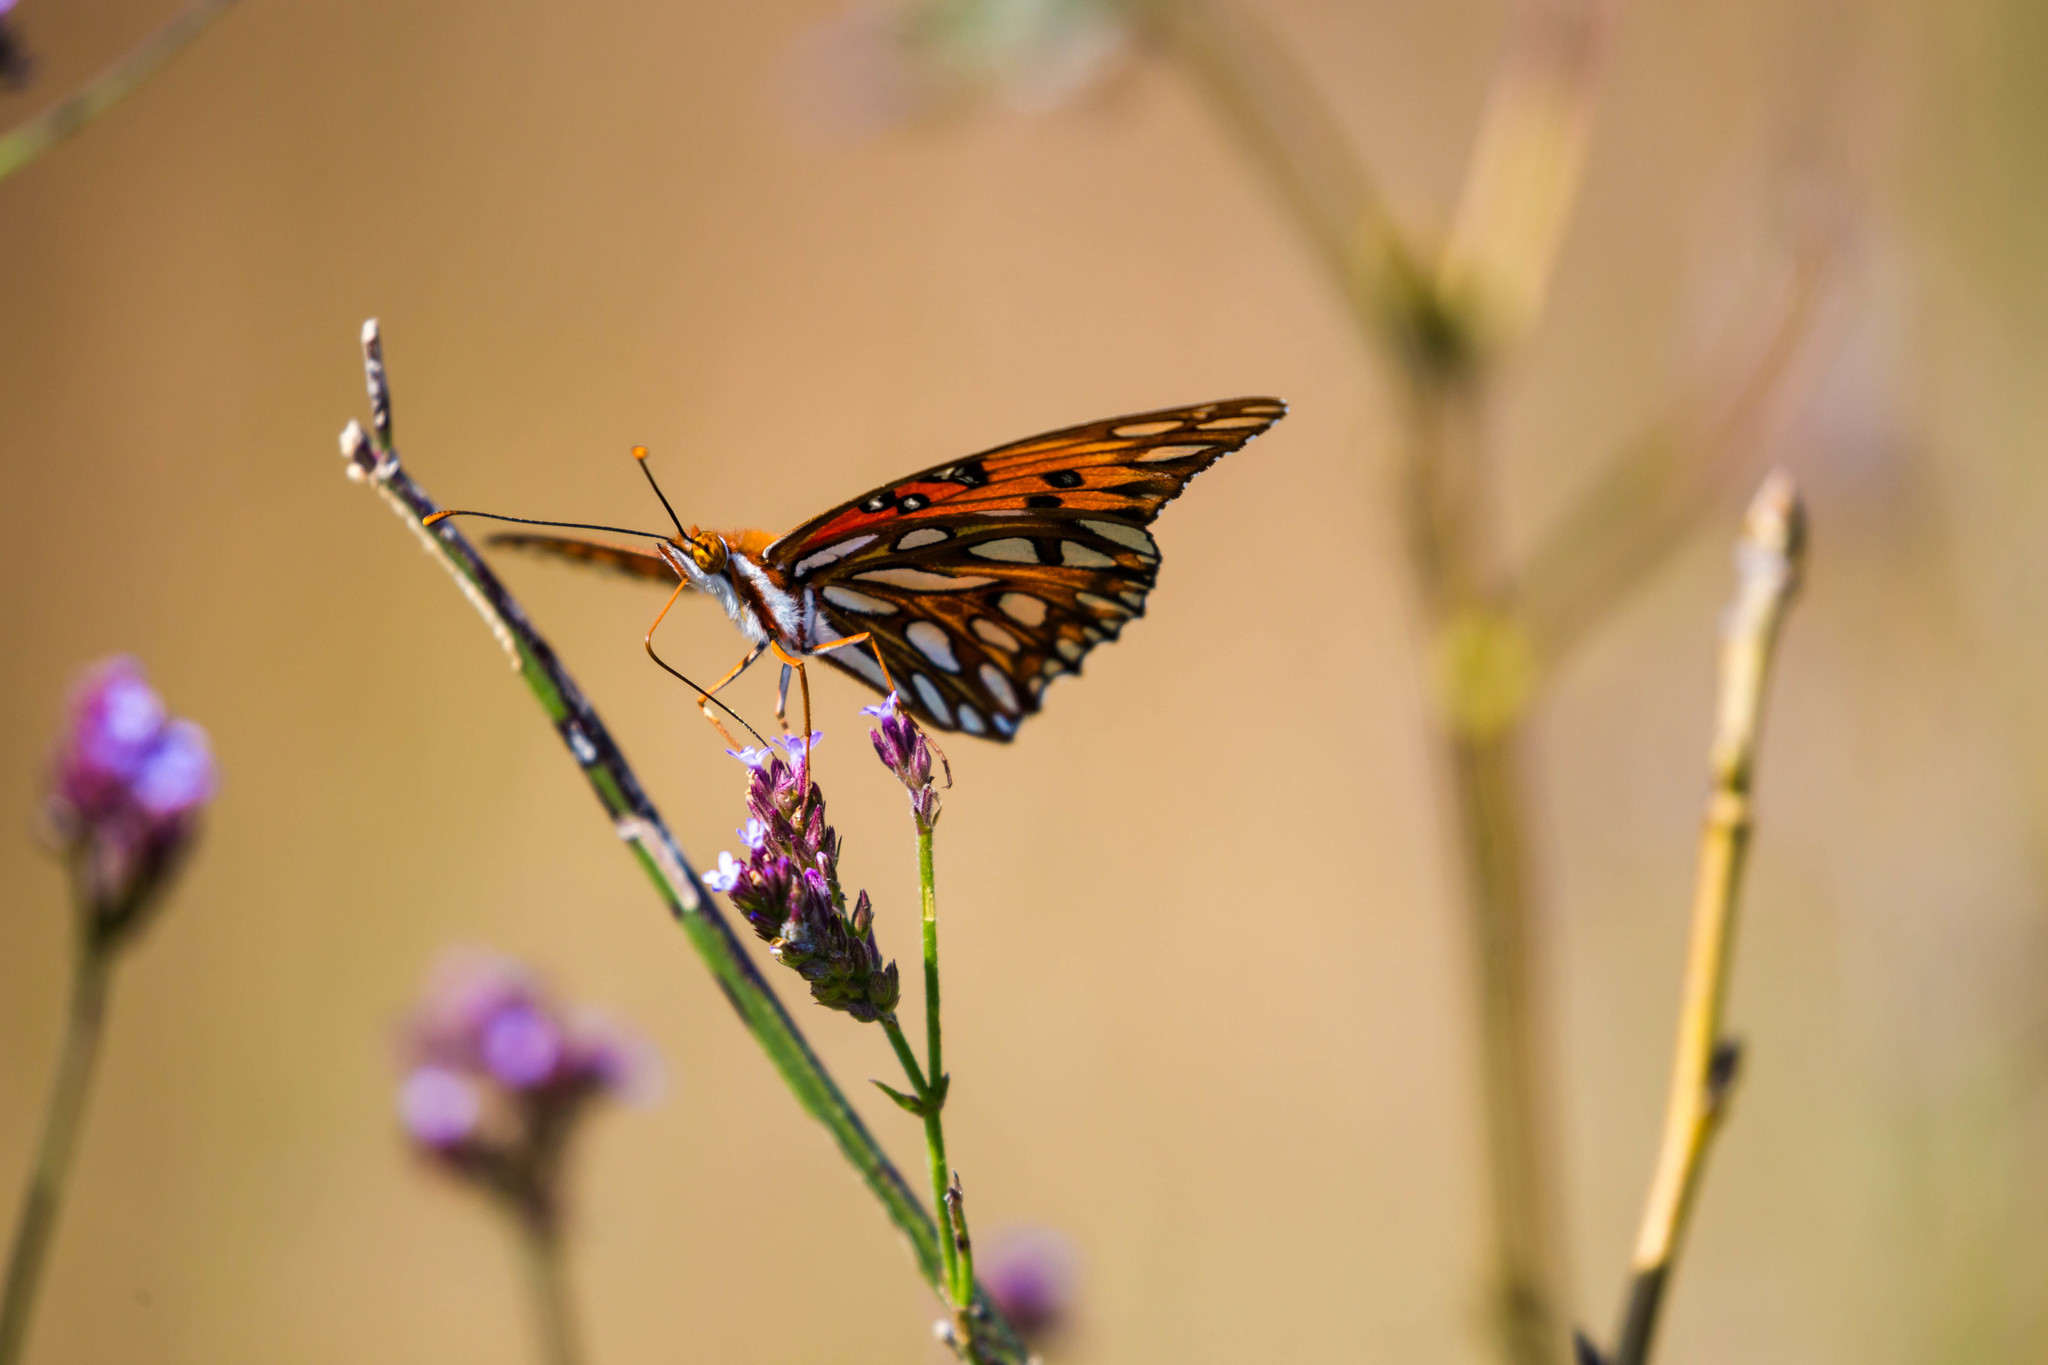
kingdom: Animalia
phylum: Arthropoda
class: Insecta
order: Lepidoptera
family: Nymphalidae
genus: Dione
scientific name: Dione vanillae
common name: Gulf fritillary
